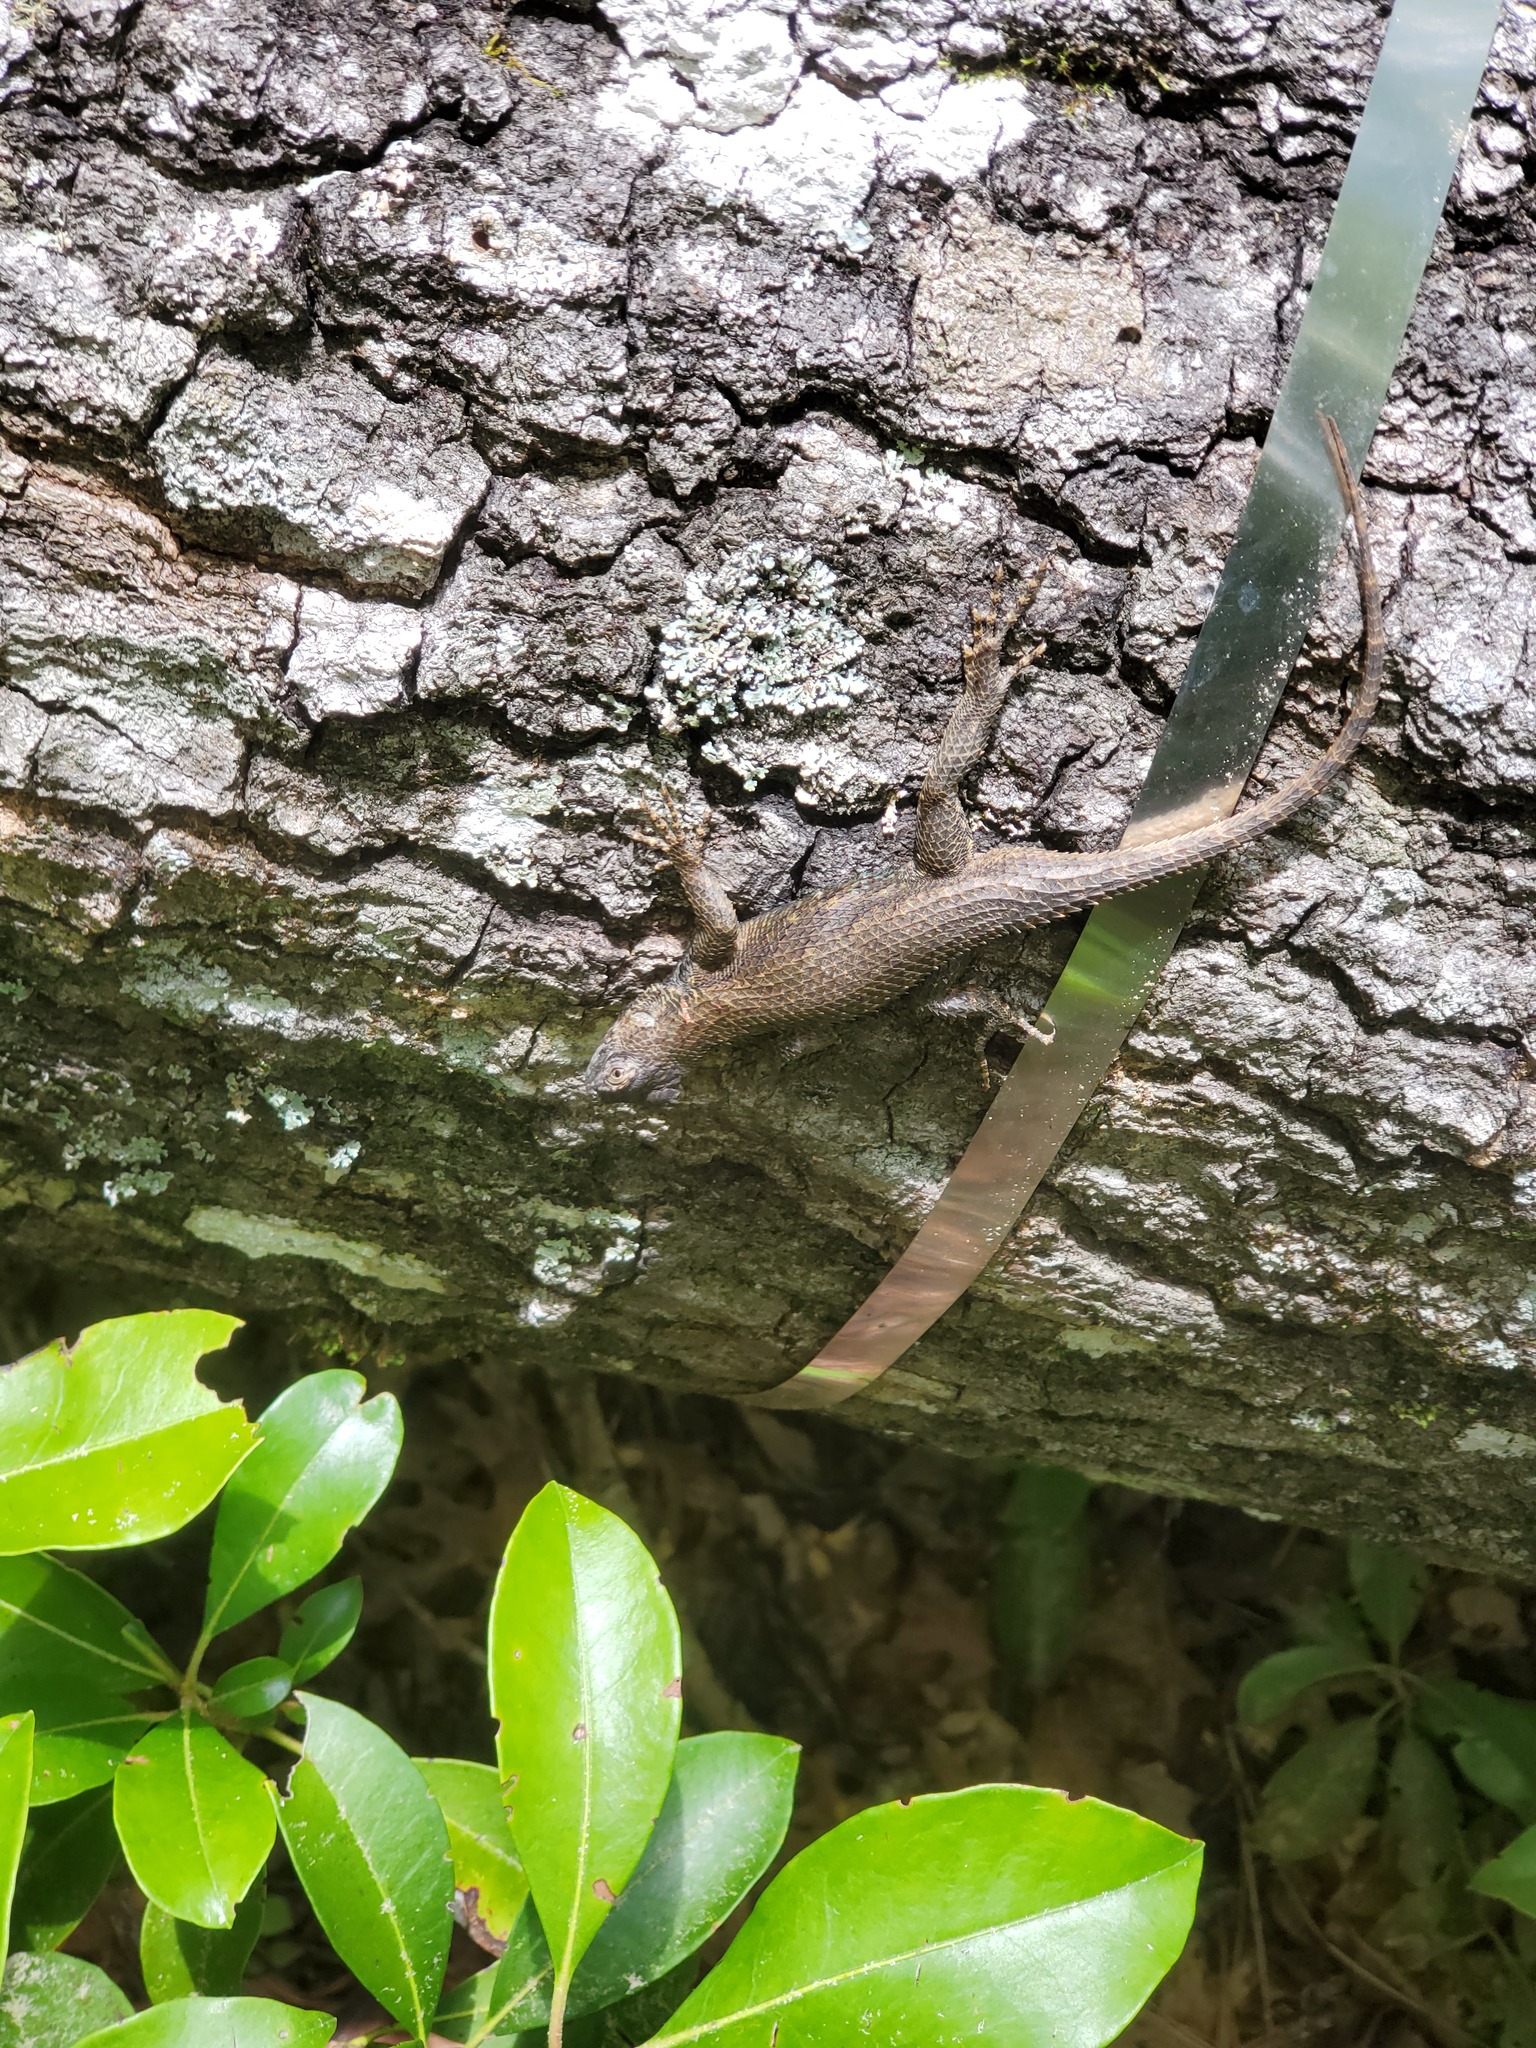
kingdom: Animalia
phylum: Chordata
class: Squamata
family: Phrynosomatidae
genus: Sceloporus
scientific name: Sceloporus undulatus
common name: Eastern fence lizard
